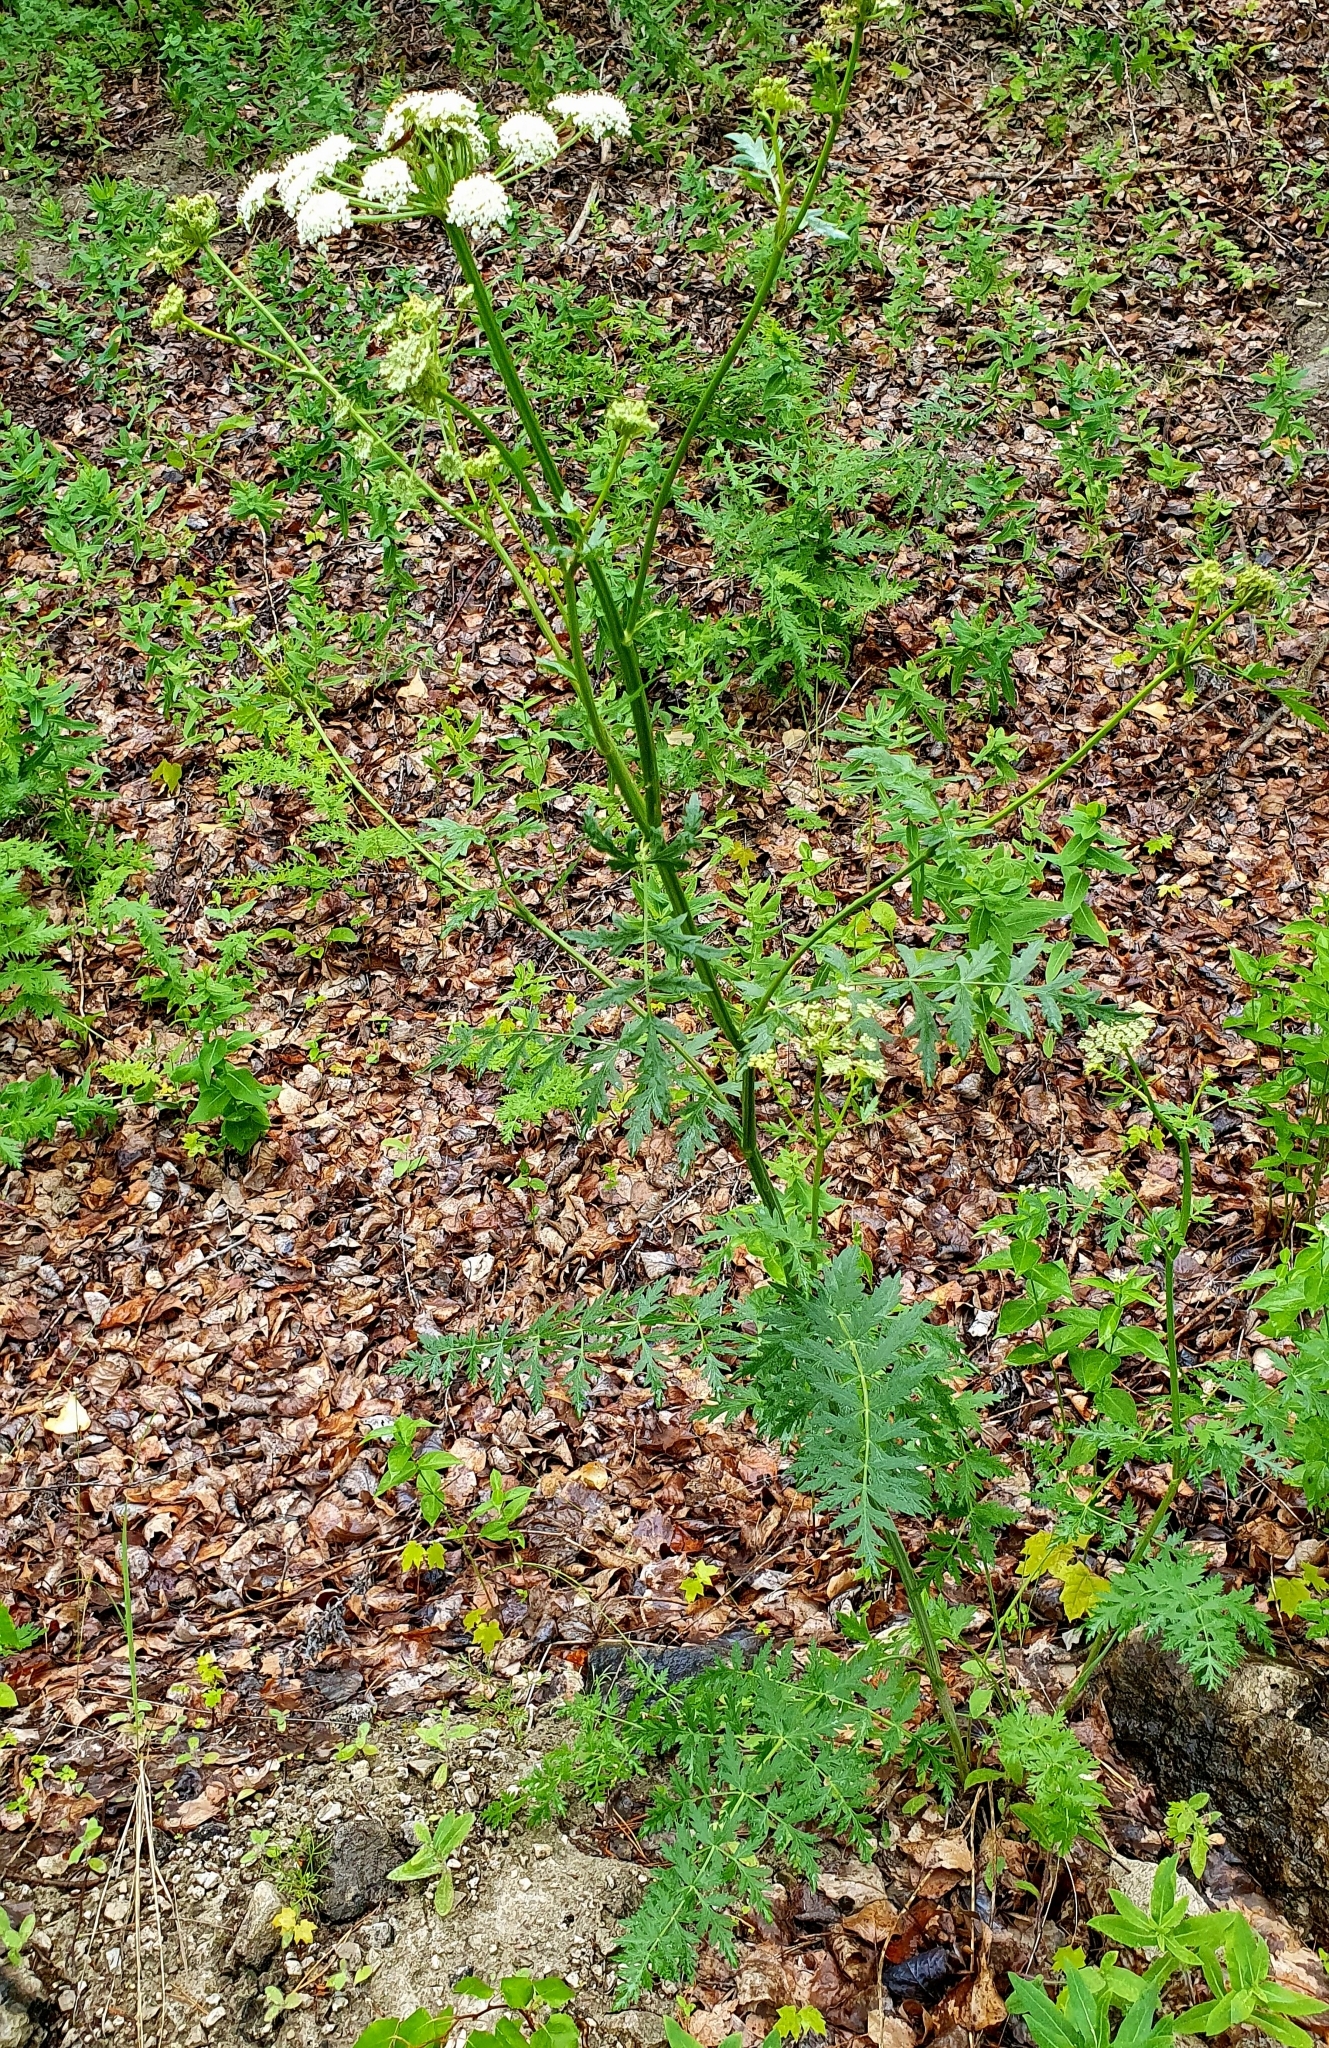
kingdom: Plantae
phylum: Tracheophyta
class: Magnoliopsida
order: Apiales
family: Apiaceae
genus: Seseli
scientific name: Seseli libanotis
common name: Mooncarrot
